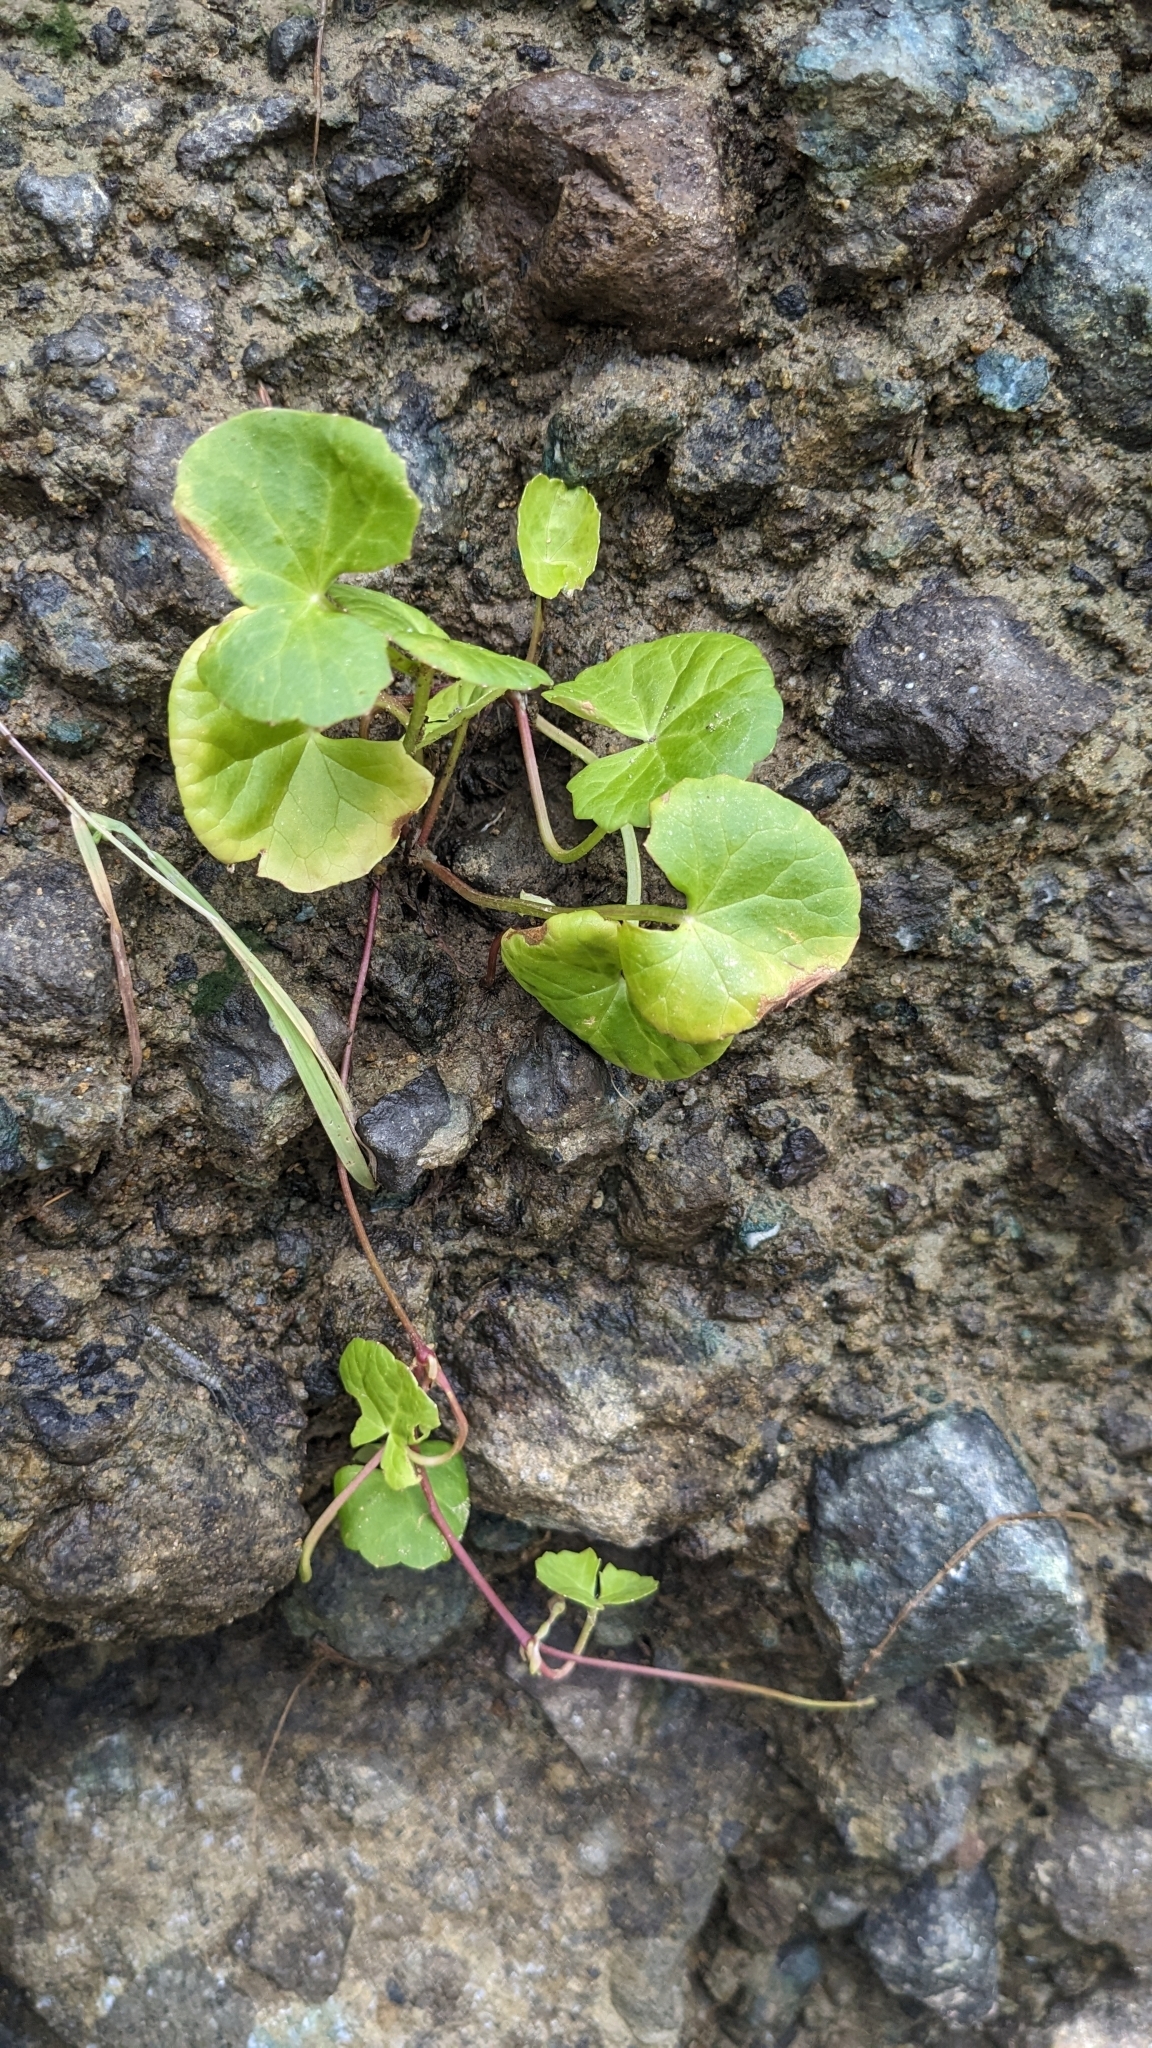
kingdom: Plantae
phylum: Tracheophyta
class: Magnoliopsida
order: Apiales
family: Apiaceae
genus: Centella
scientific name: Centella asiatica
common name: Spadeleaf
